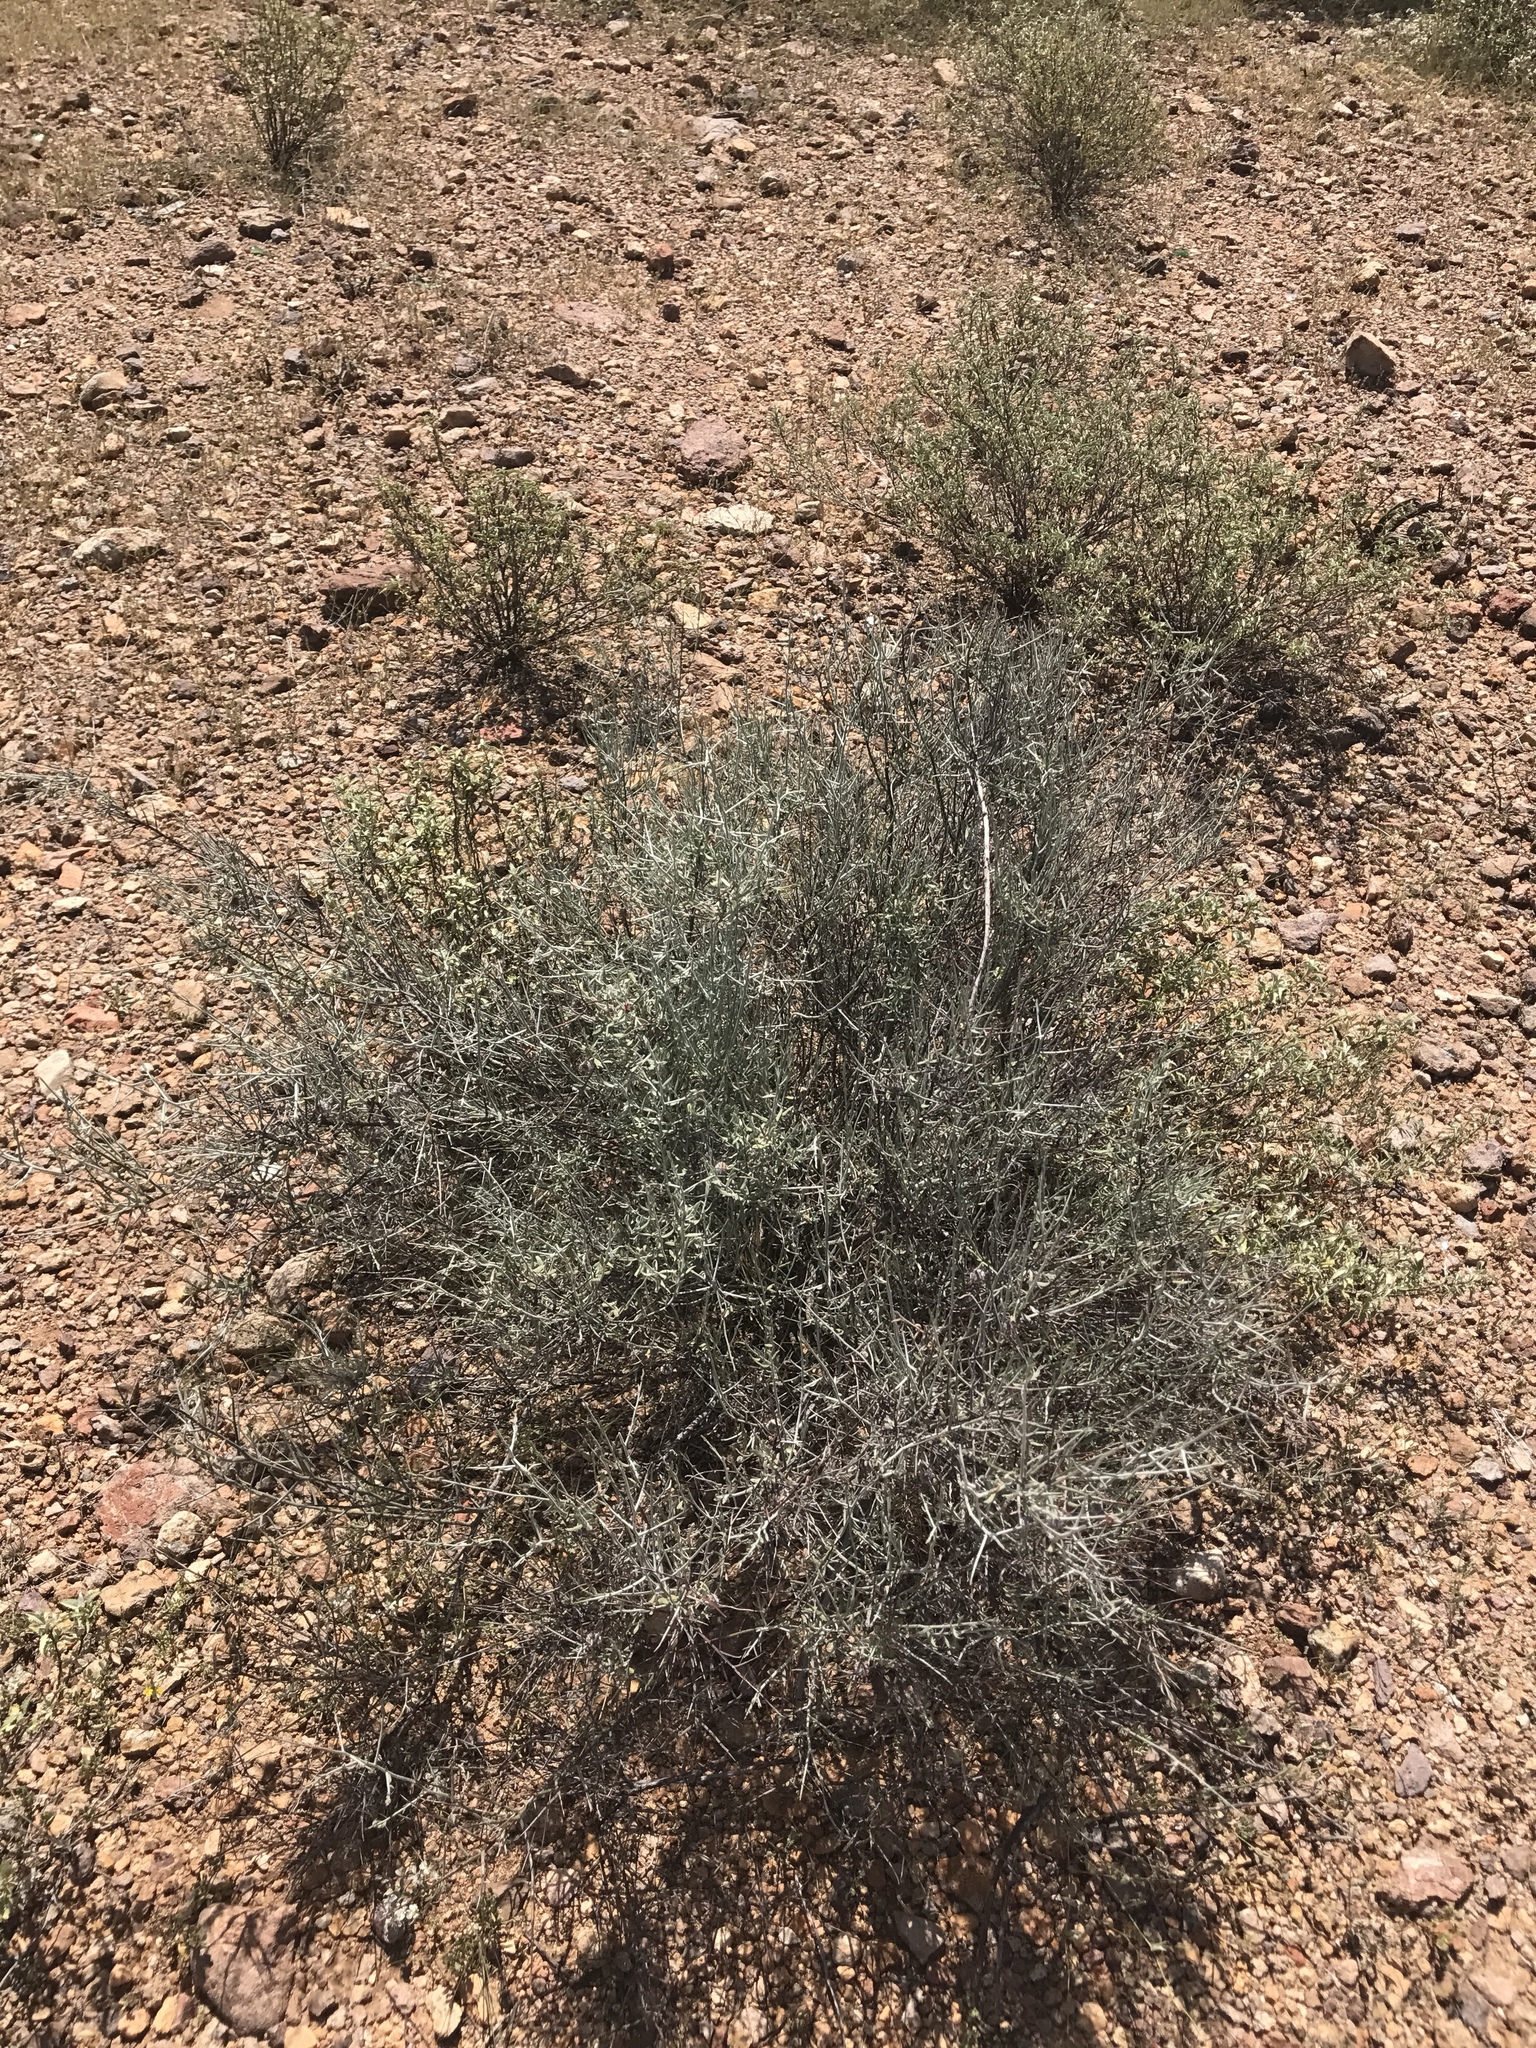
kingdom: Plantae
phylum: Tracheophyta
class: Magnoliopsida
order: Zygophyllales
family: Krameriaceae
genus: Krameria
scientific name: Krameria bicolor
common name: White ratany
